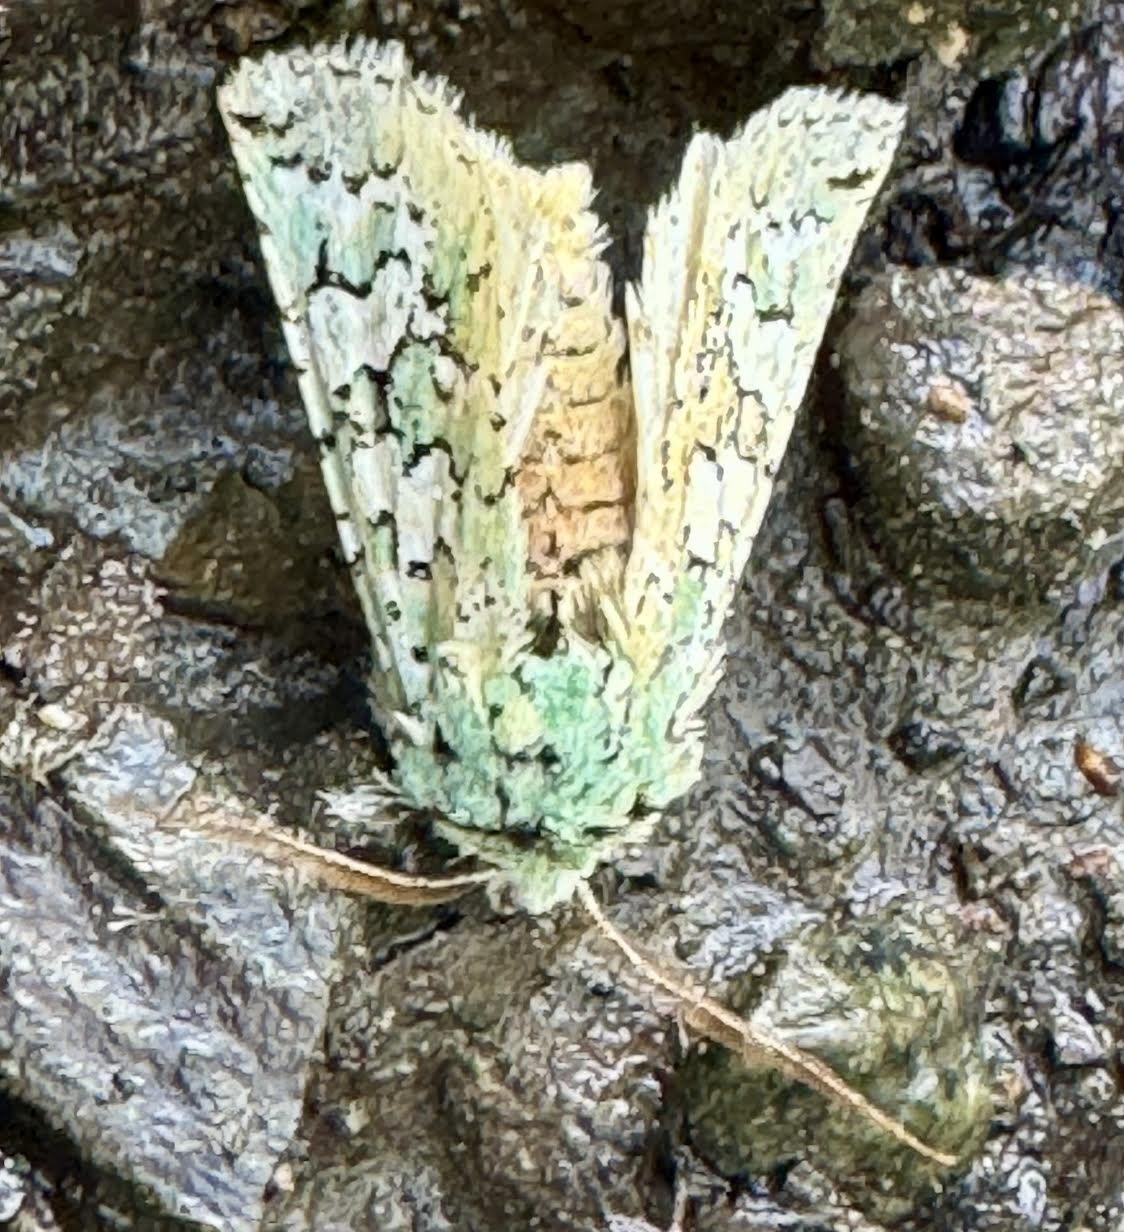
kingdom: Animalia
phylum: Arthropoda
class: Insecta
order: Lepidoptera
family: Noctuidae
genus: Feralia
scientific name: Feralia februalis
